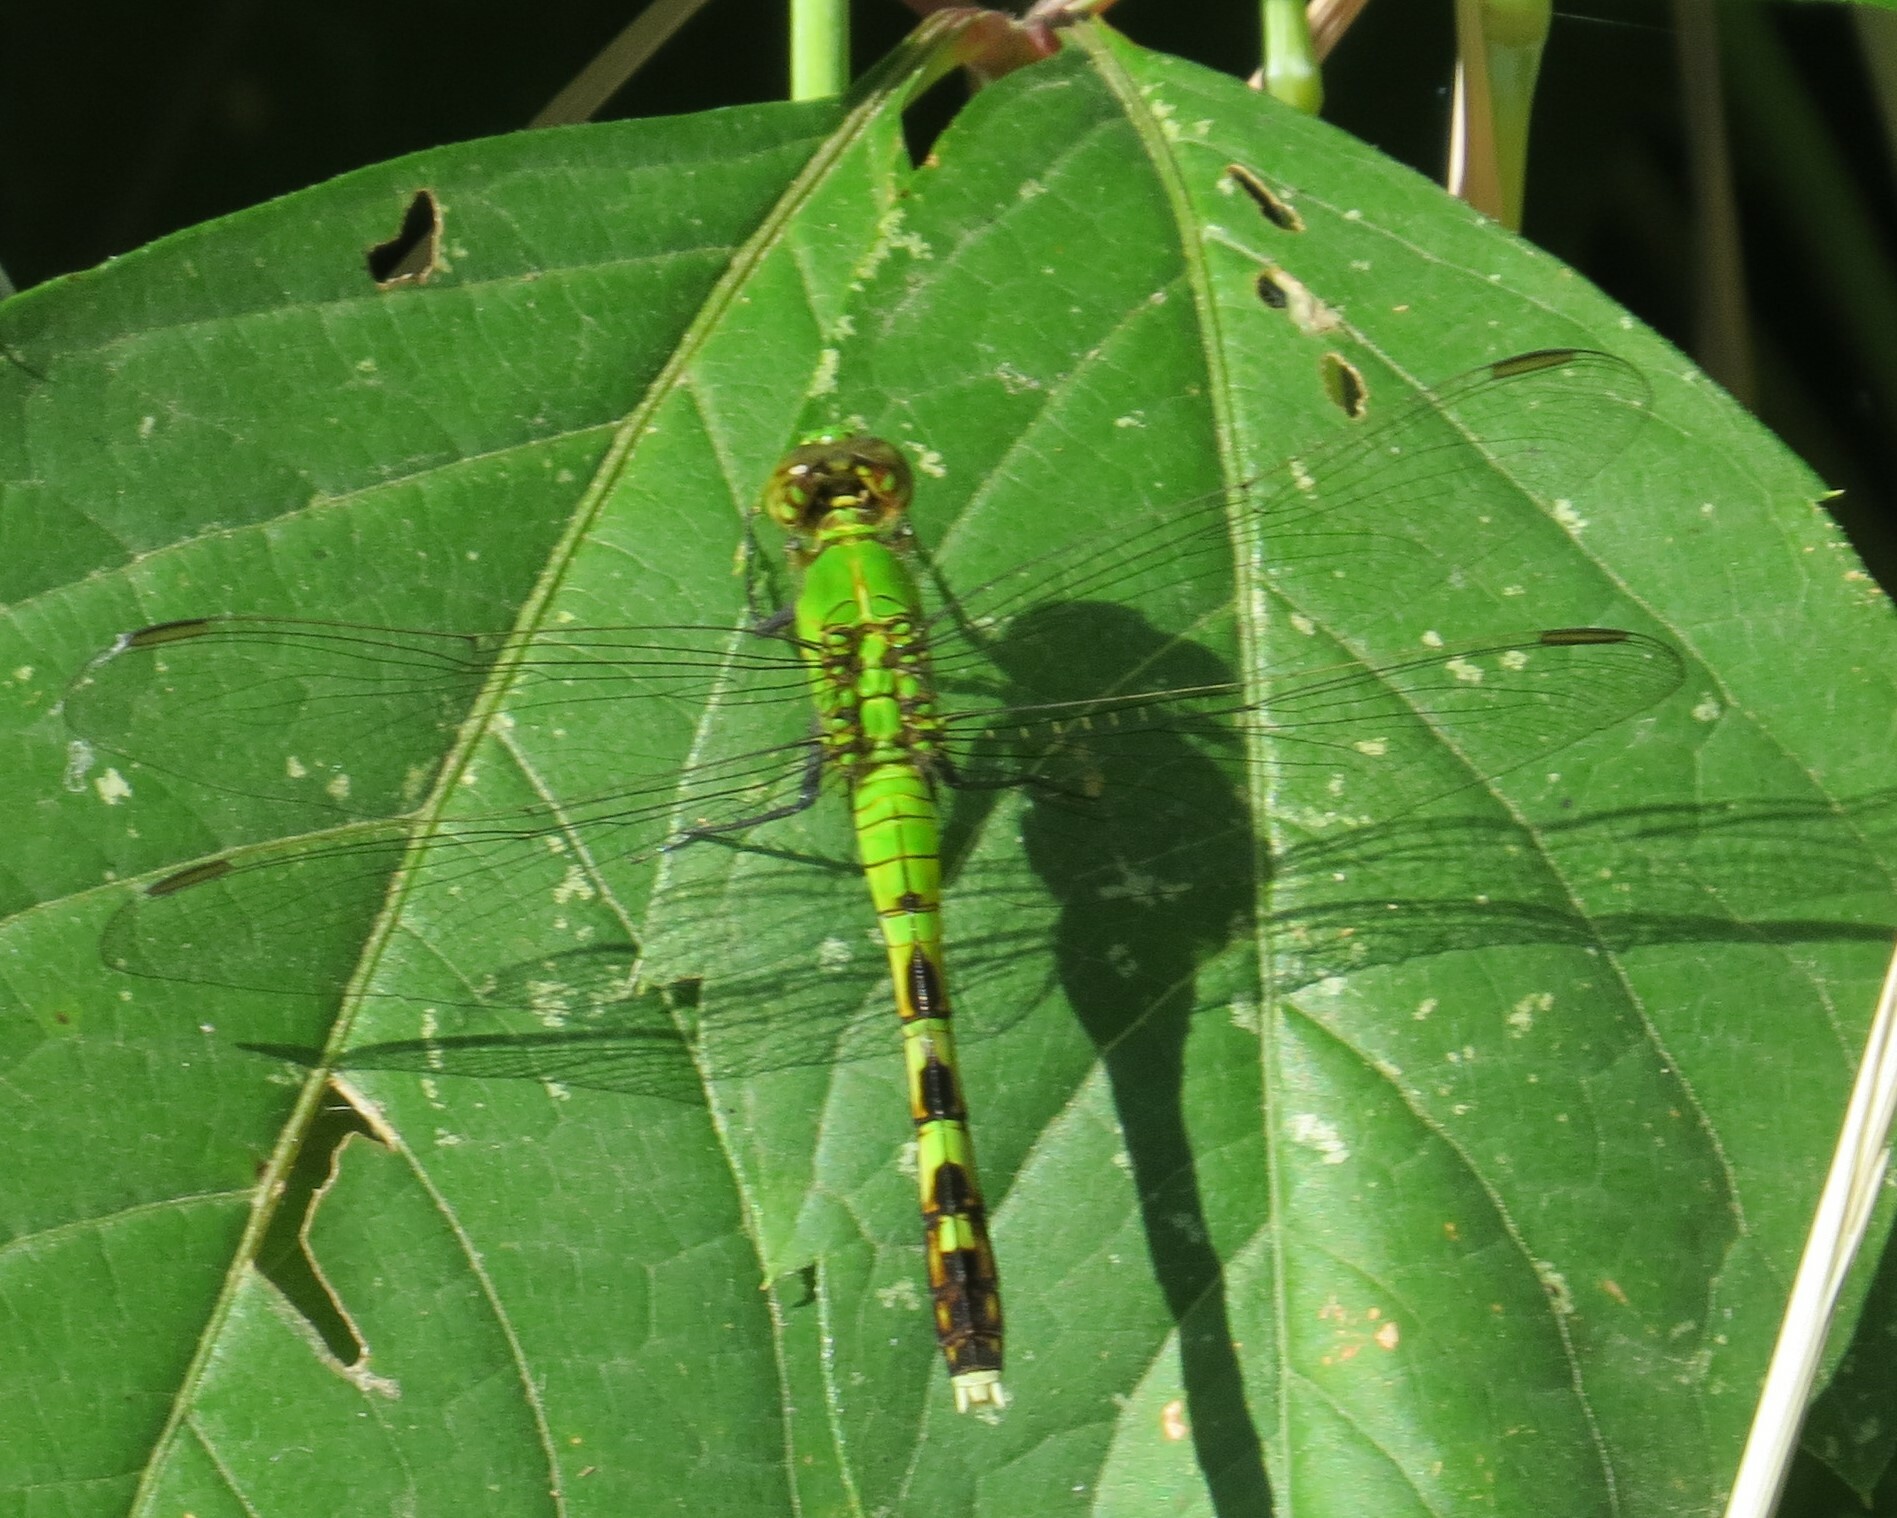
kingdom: Animalia
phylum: Arthropoda
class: Insecta
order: Odonata
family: Libellulidae
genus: Erythemis
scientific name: Erythemis simplicicollis
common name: Eastern pondhawk
